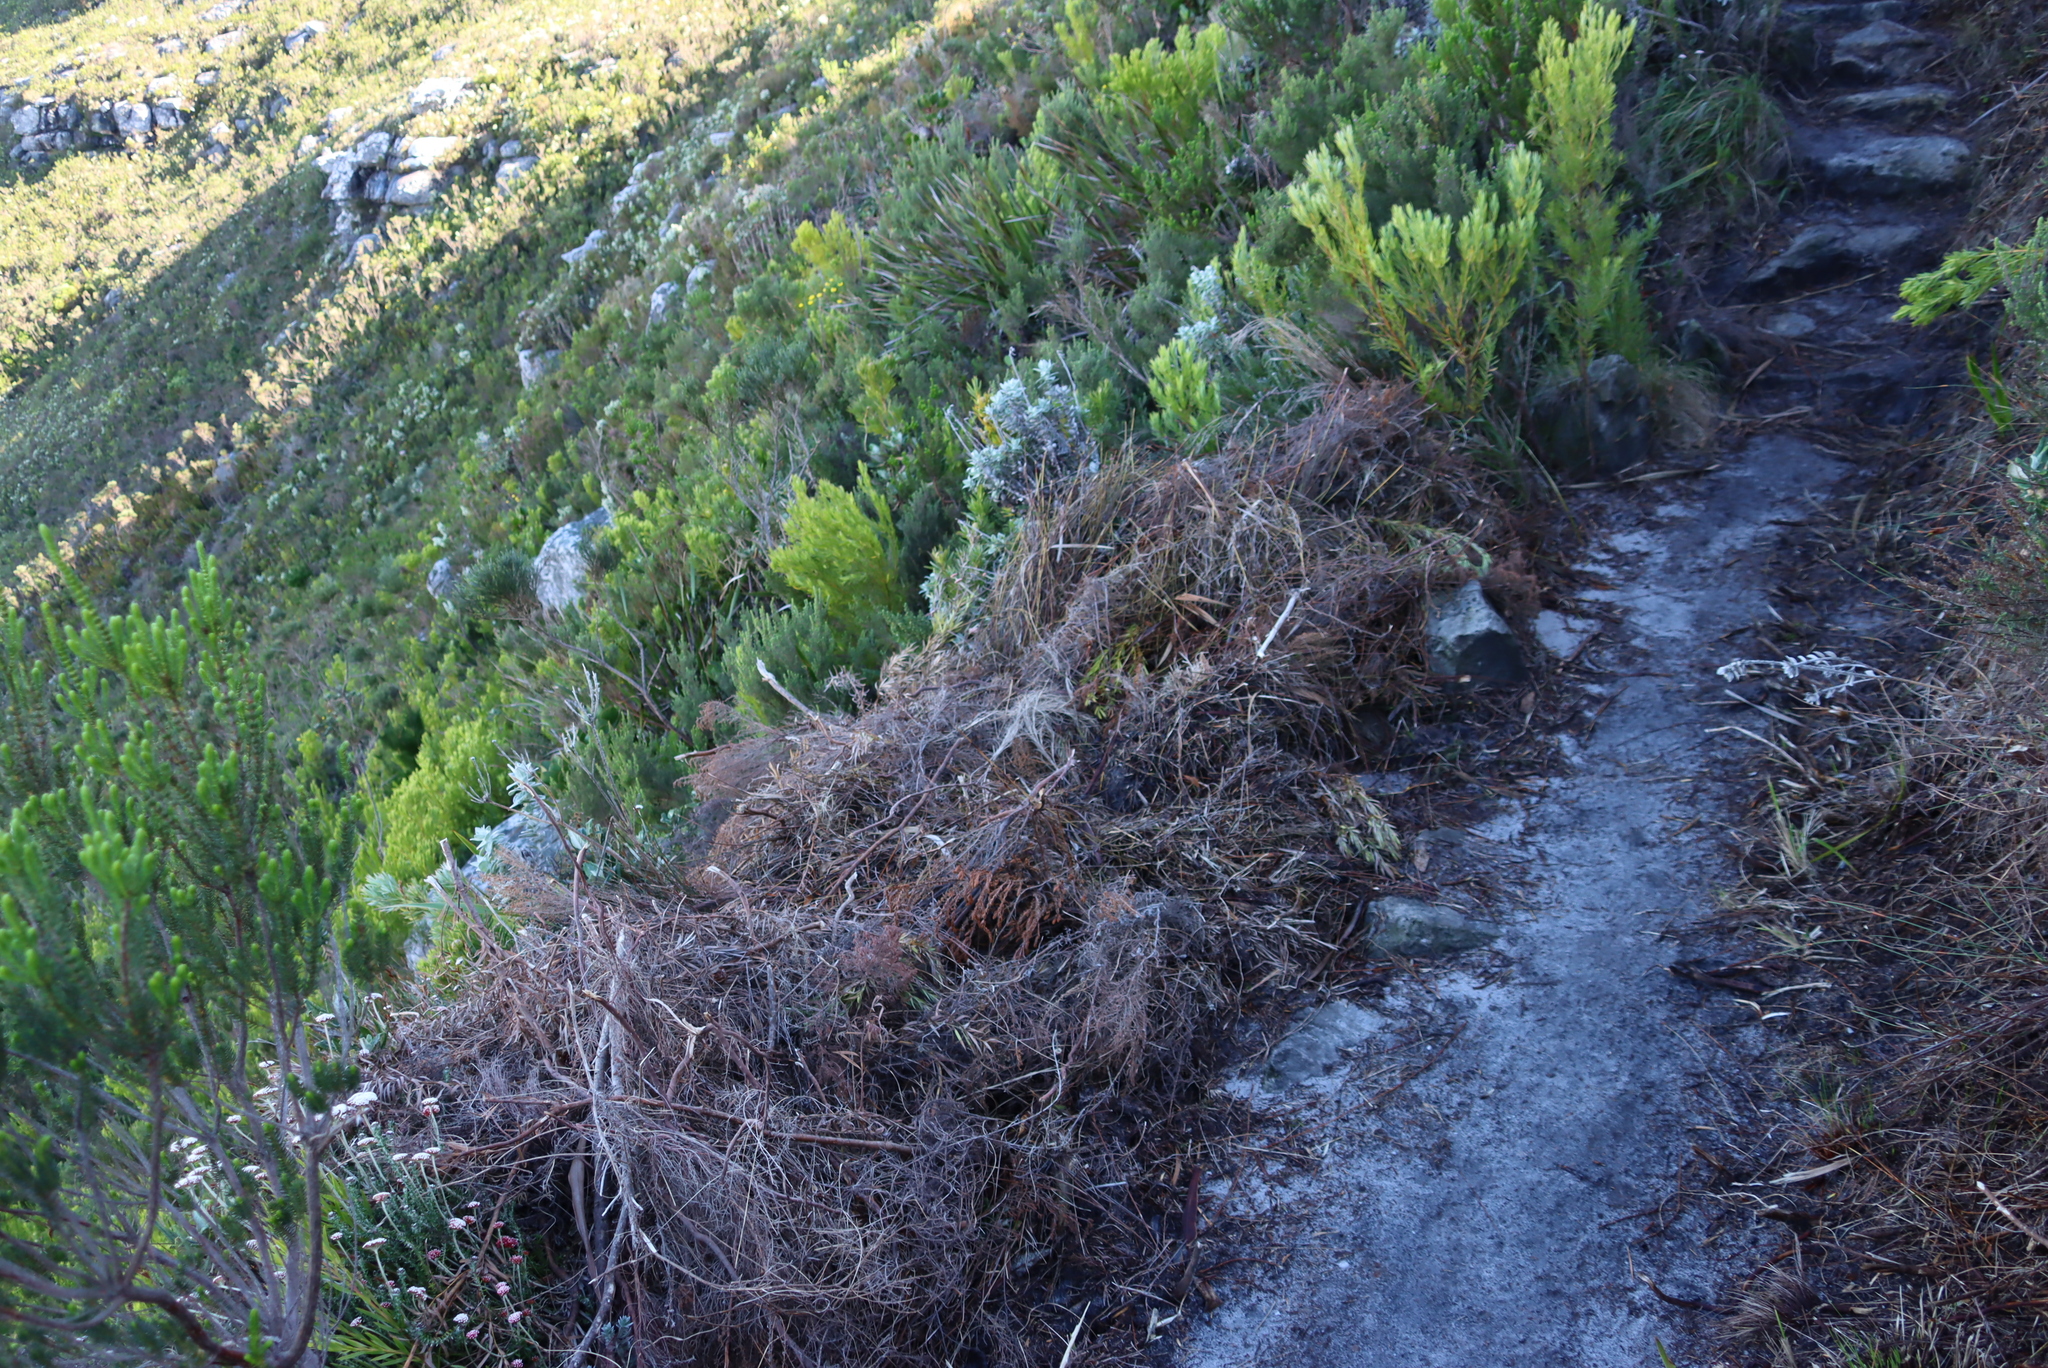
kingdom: Plantae
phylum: Tracheophyta
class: Magnoliopsida
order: Proteales
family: Proteaceae
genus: Leucadendron
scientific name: Leucadendron xanthoconus
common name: Sickle-leaf conebush
